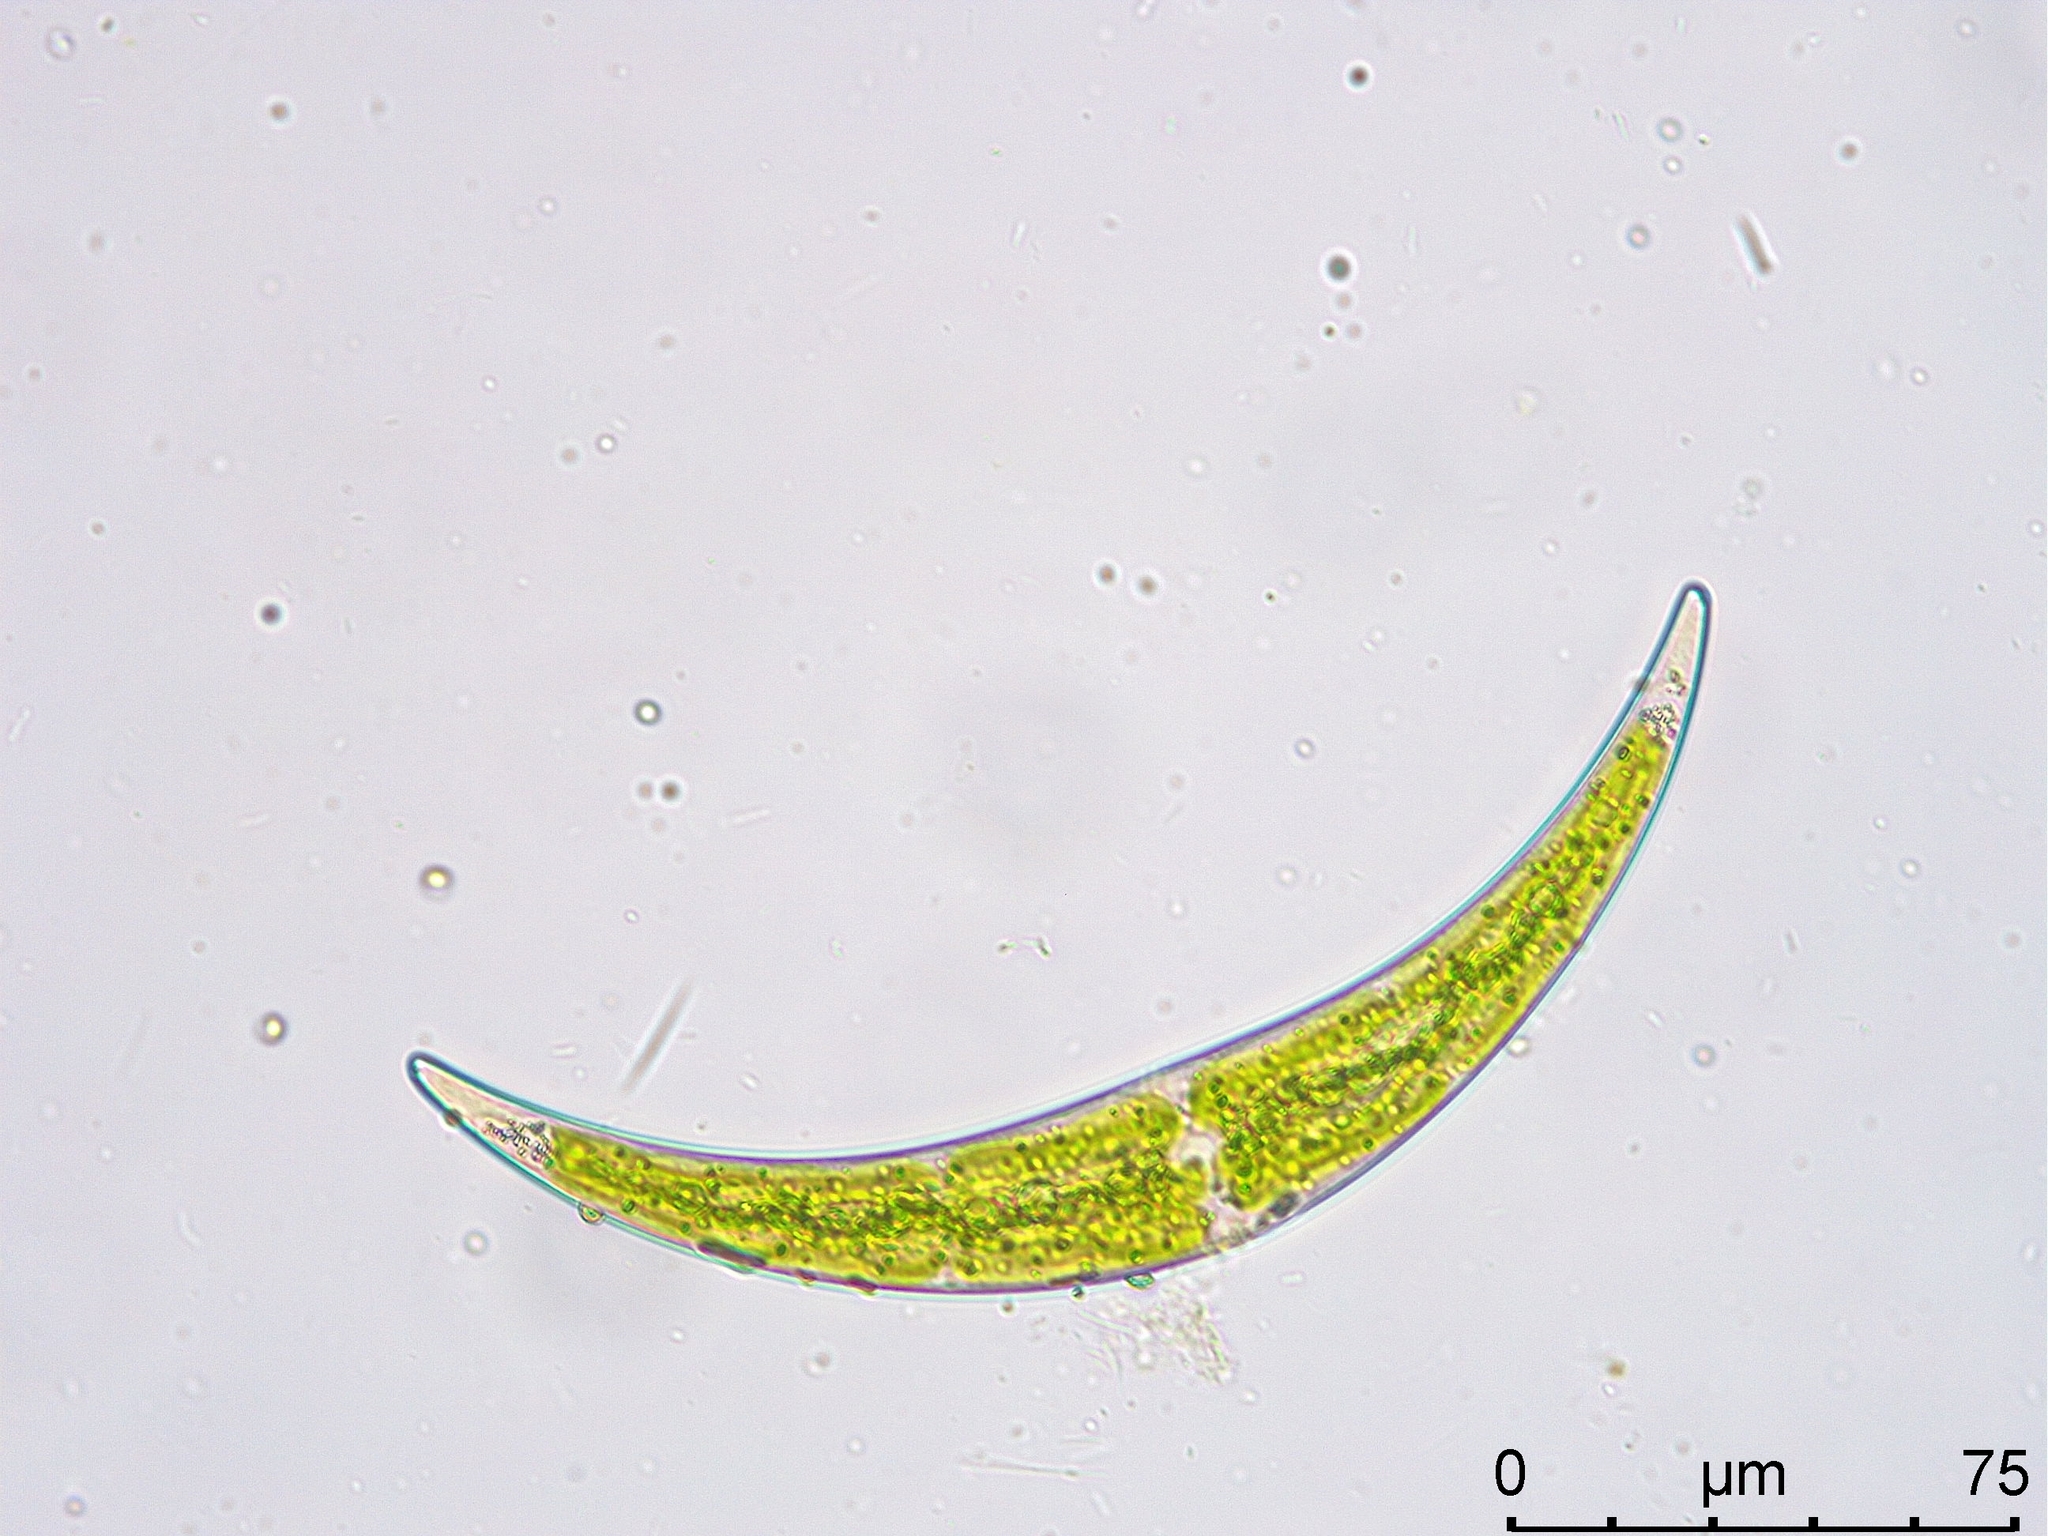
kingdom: Plantae
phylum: Charophyta
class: Zygnematophyceae
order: Zygnematales
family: Closteriaceae
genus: Closterium
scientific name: Closterium dianae
